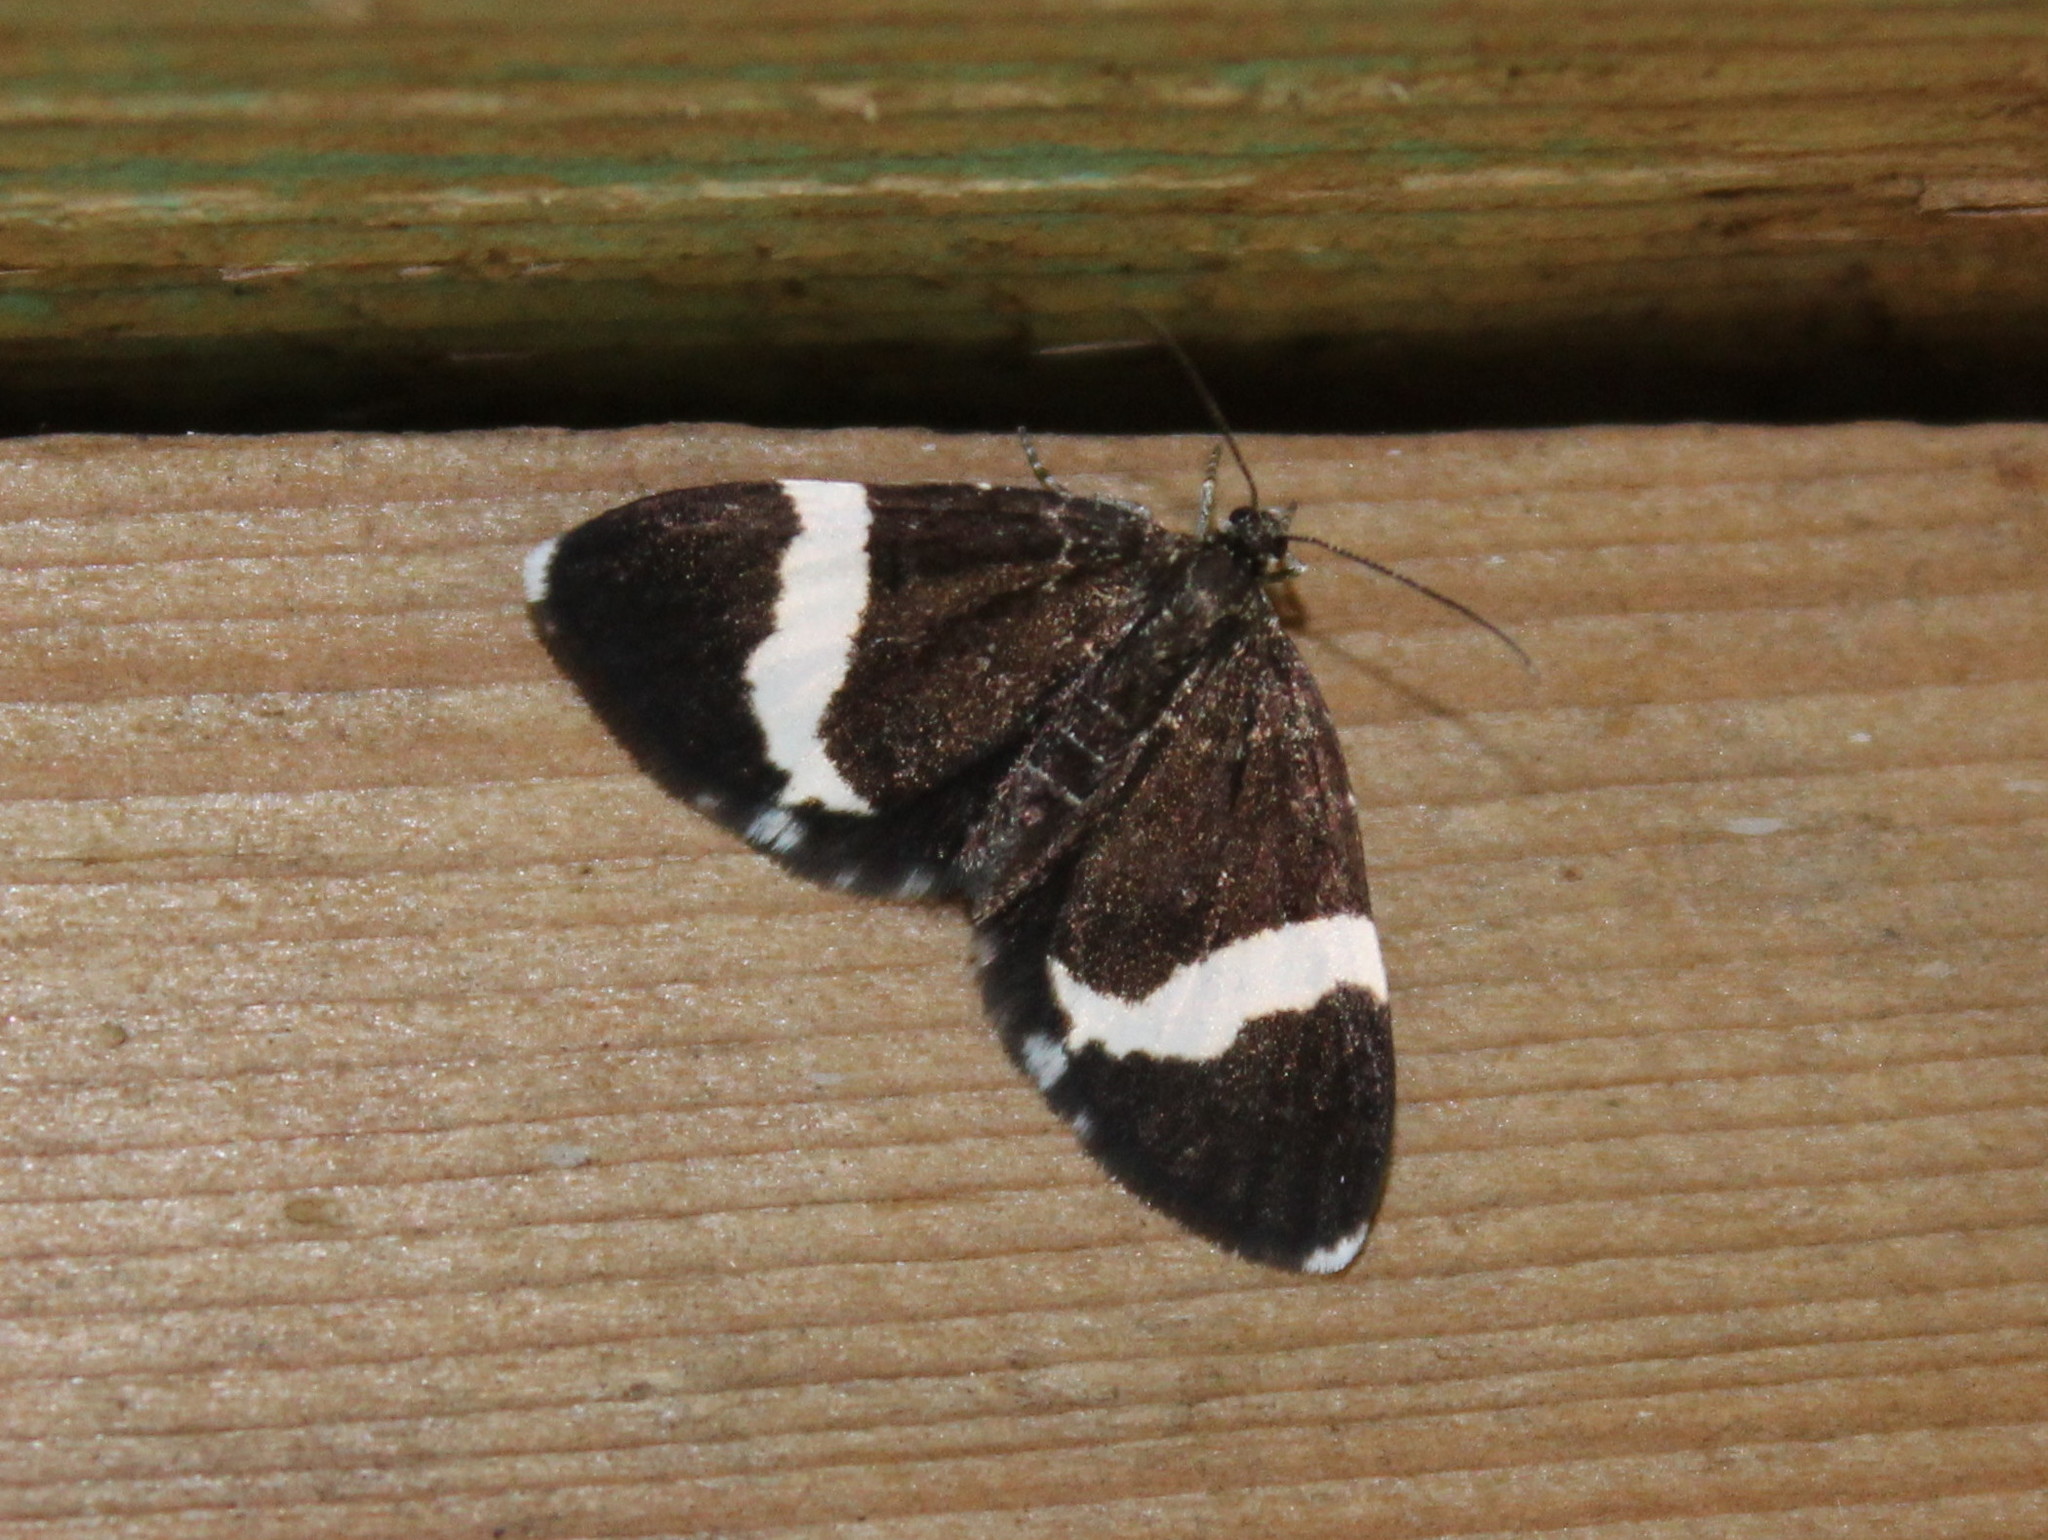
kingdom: Animalia
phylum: Arthropoda
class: Insecta
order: Lepidoptera
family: Geometridae
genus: Trichodezia
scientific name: Trichodezia albovittata
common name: White striped black
